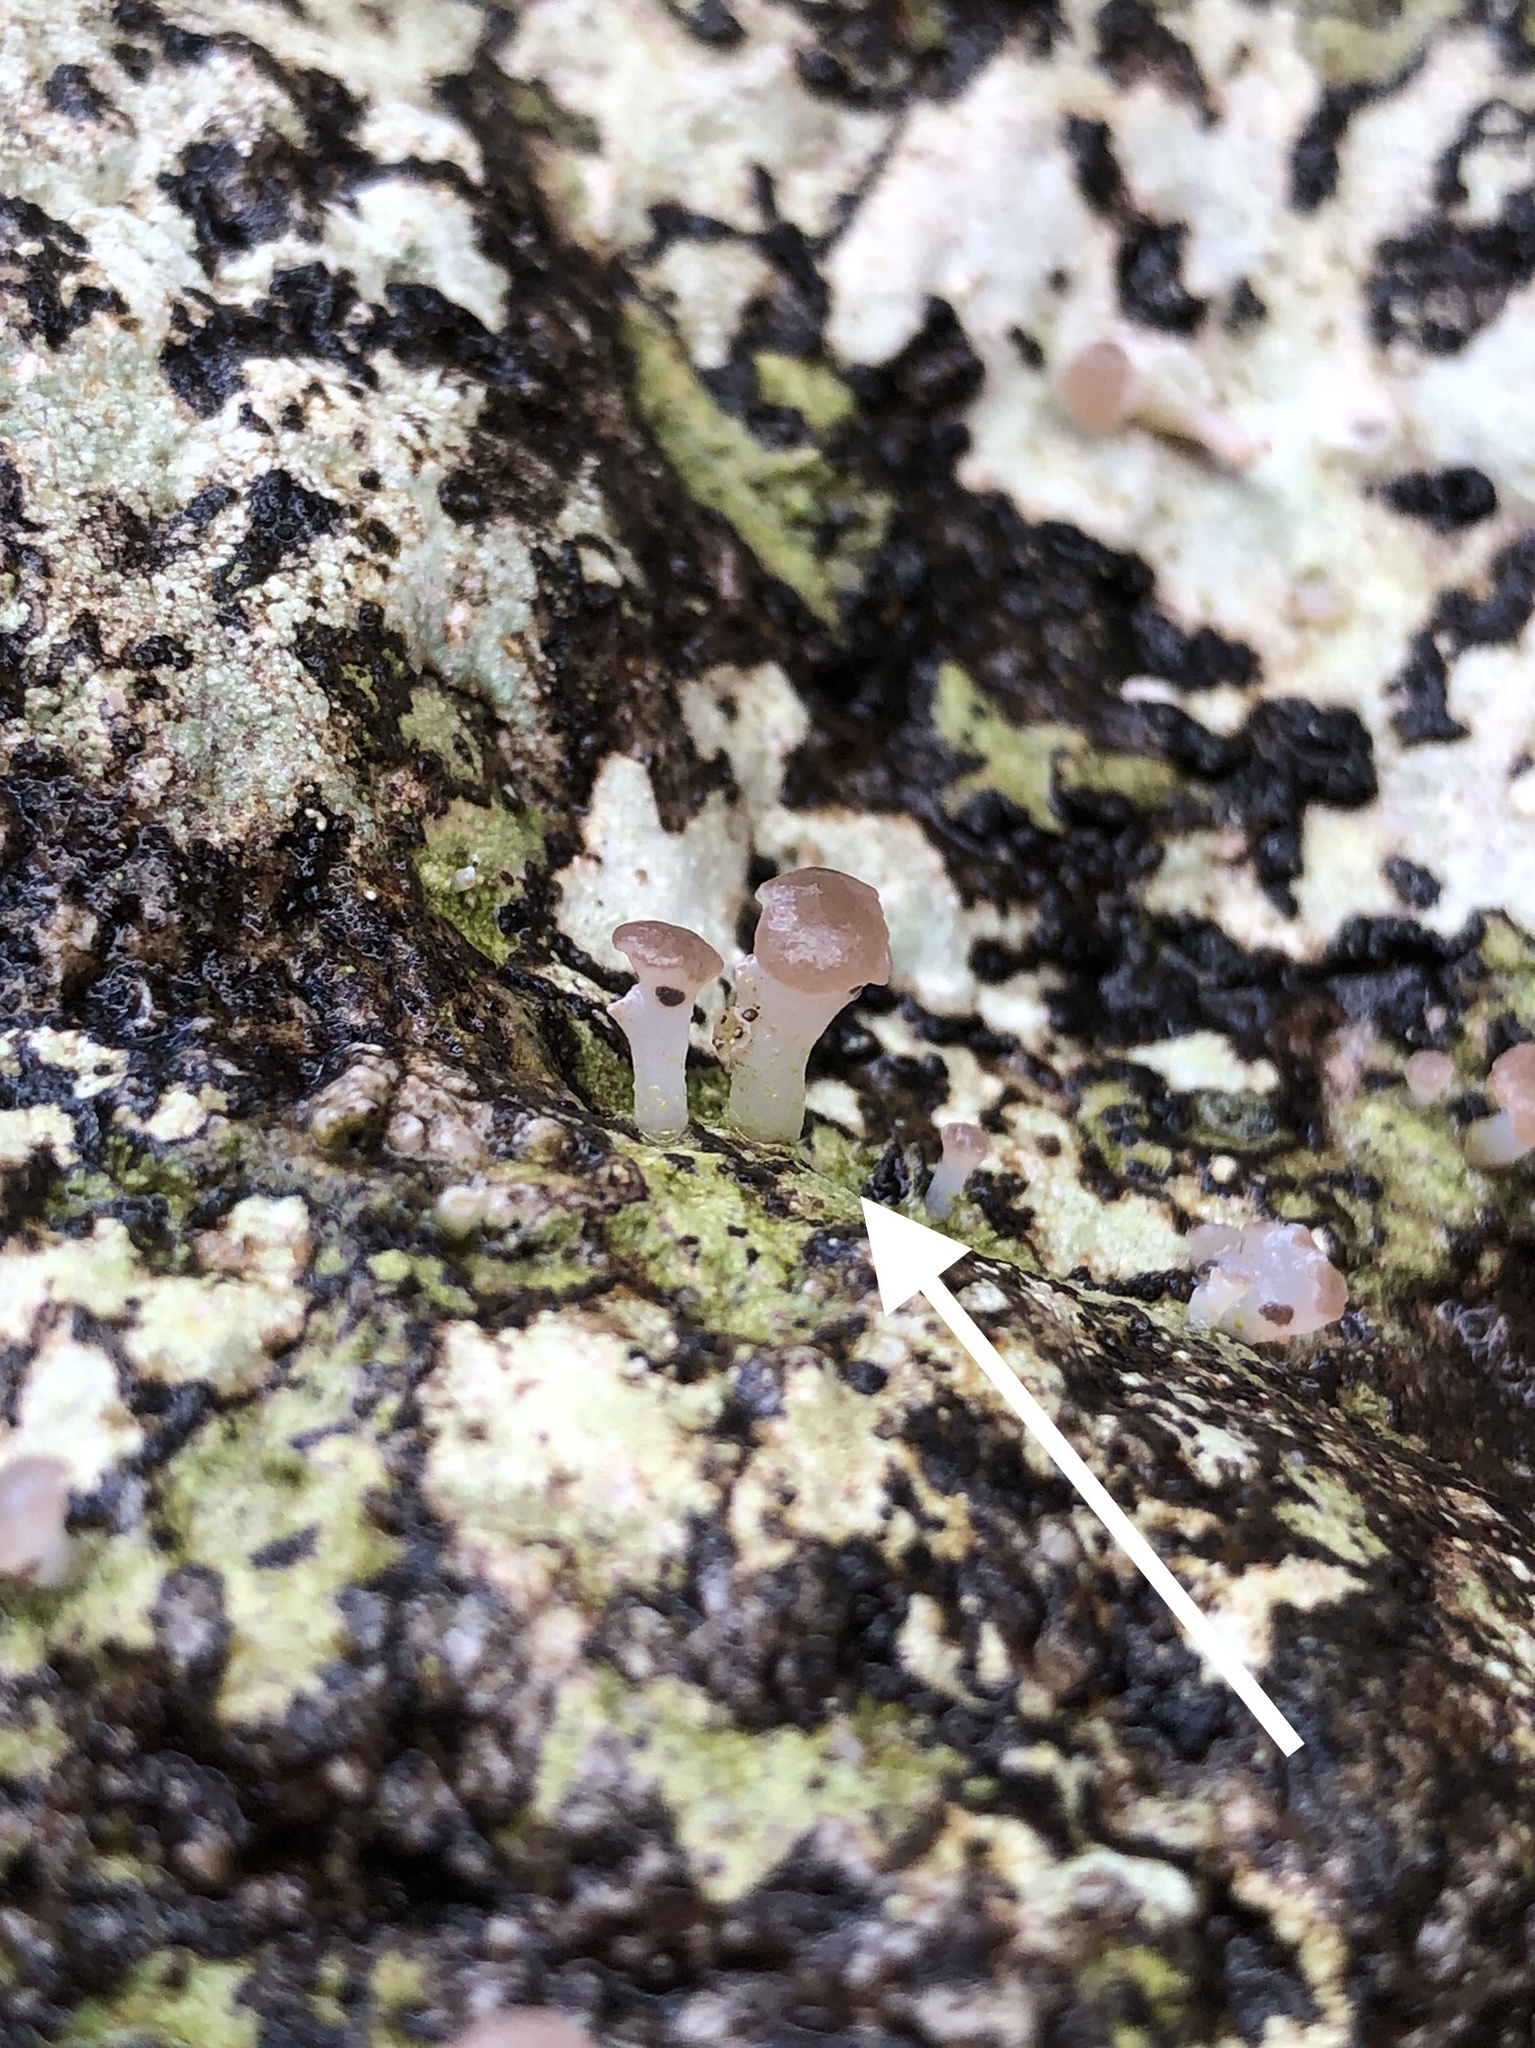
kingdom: Fungi
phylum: Ascomycota
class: Lecanoromycetes
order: Baeomycetales
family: Baeomycetaceae
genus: Baeomyces
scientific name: Baeomyces heteromorphus
